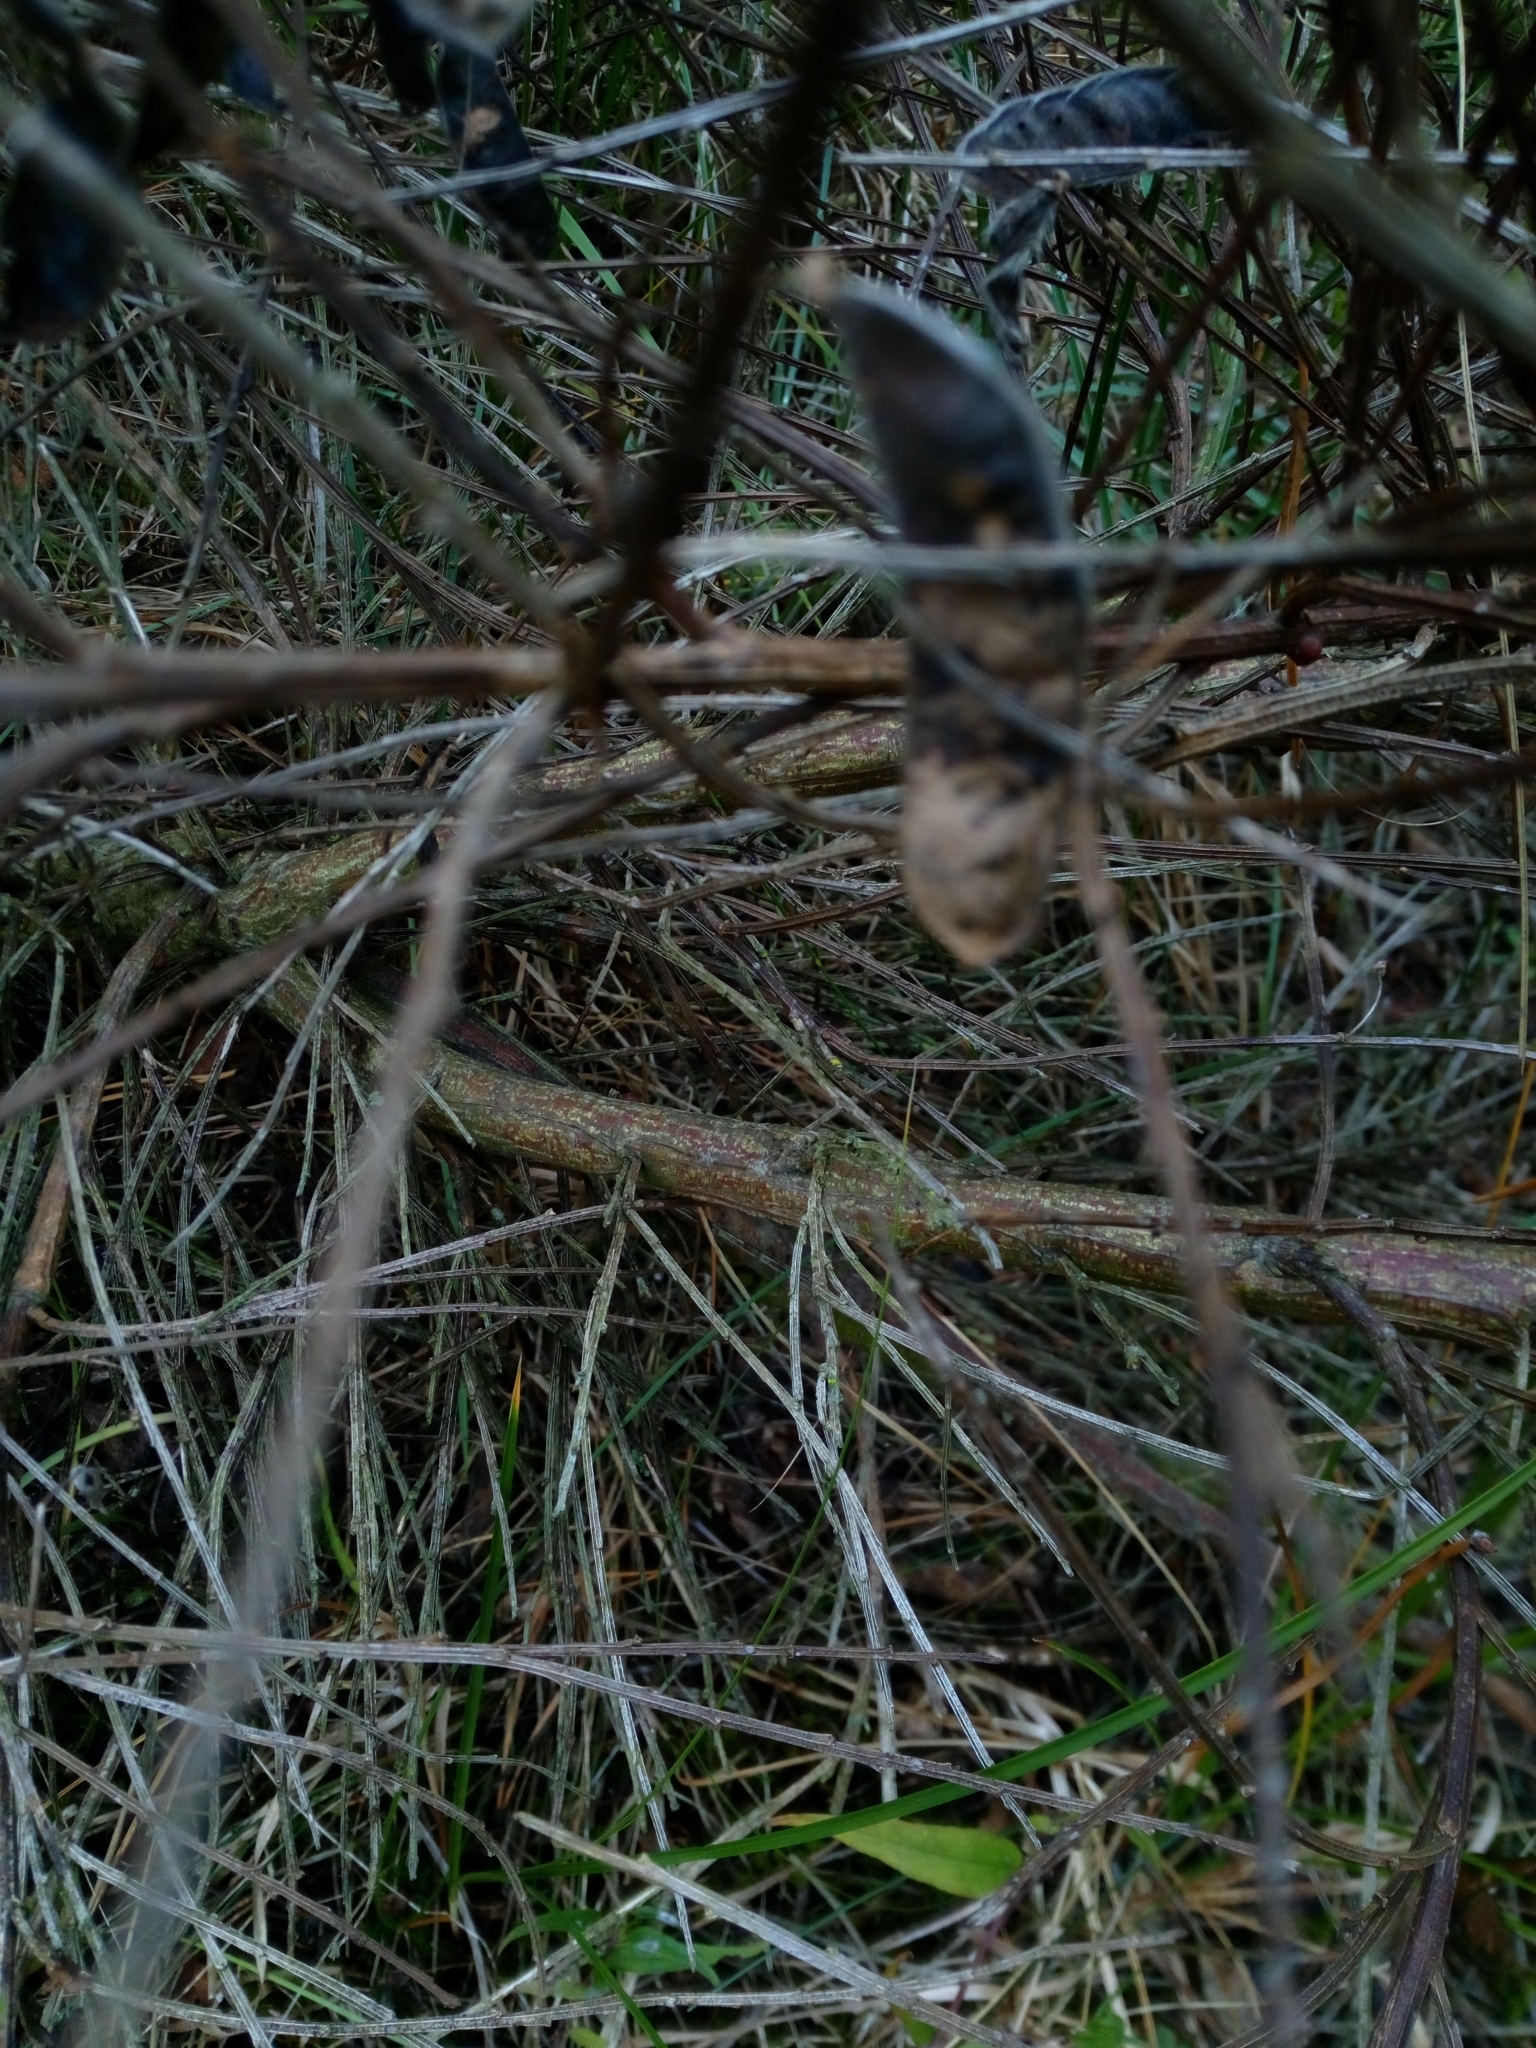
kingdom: Plantae
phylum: Tracheophyta
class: Magnoliopsida
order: Fabales
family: Fabaceae
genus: Cytisus
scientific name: Cytisus scoparius
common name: Scotch broom
